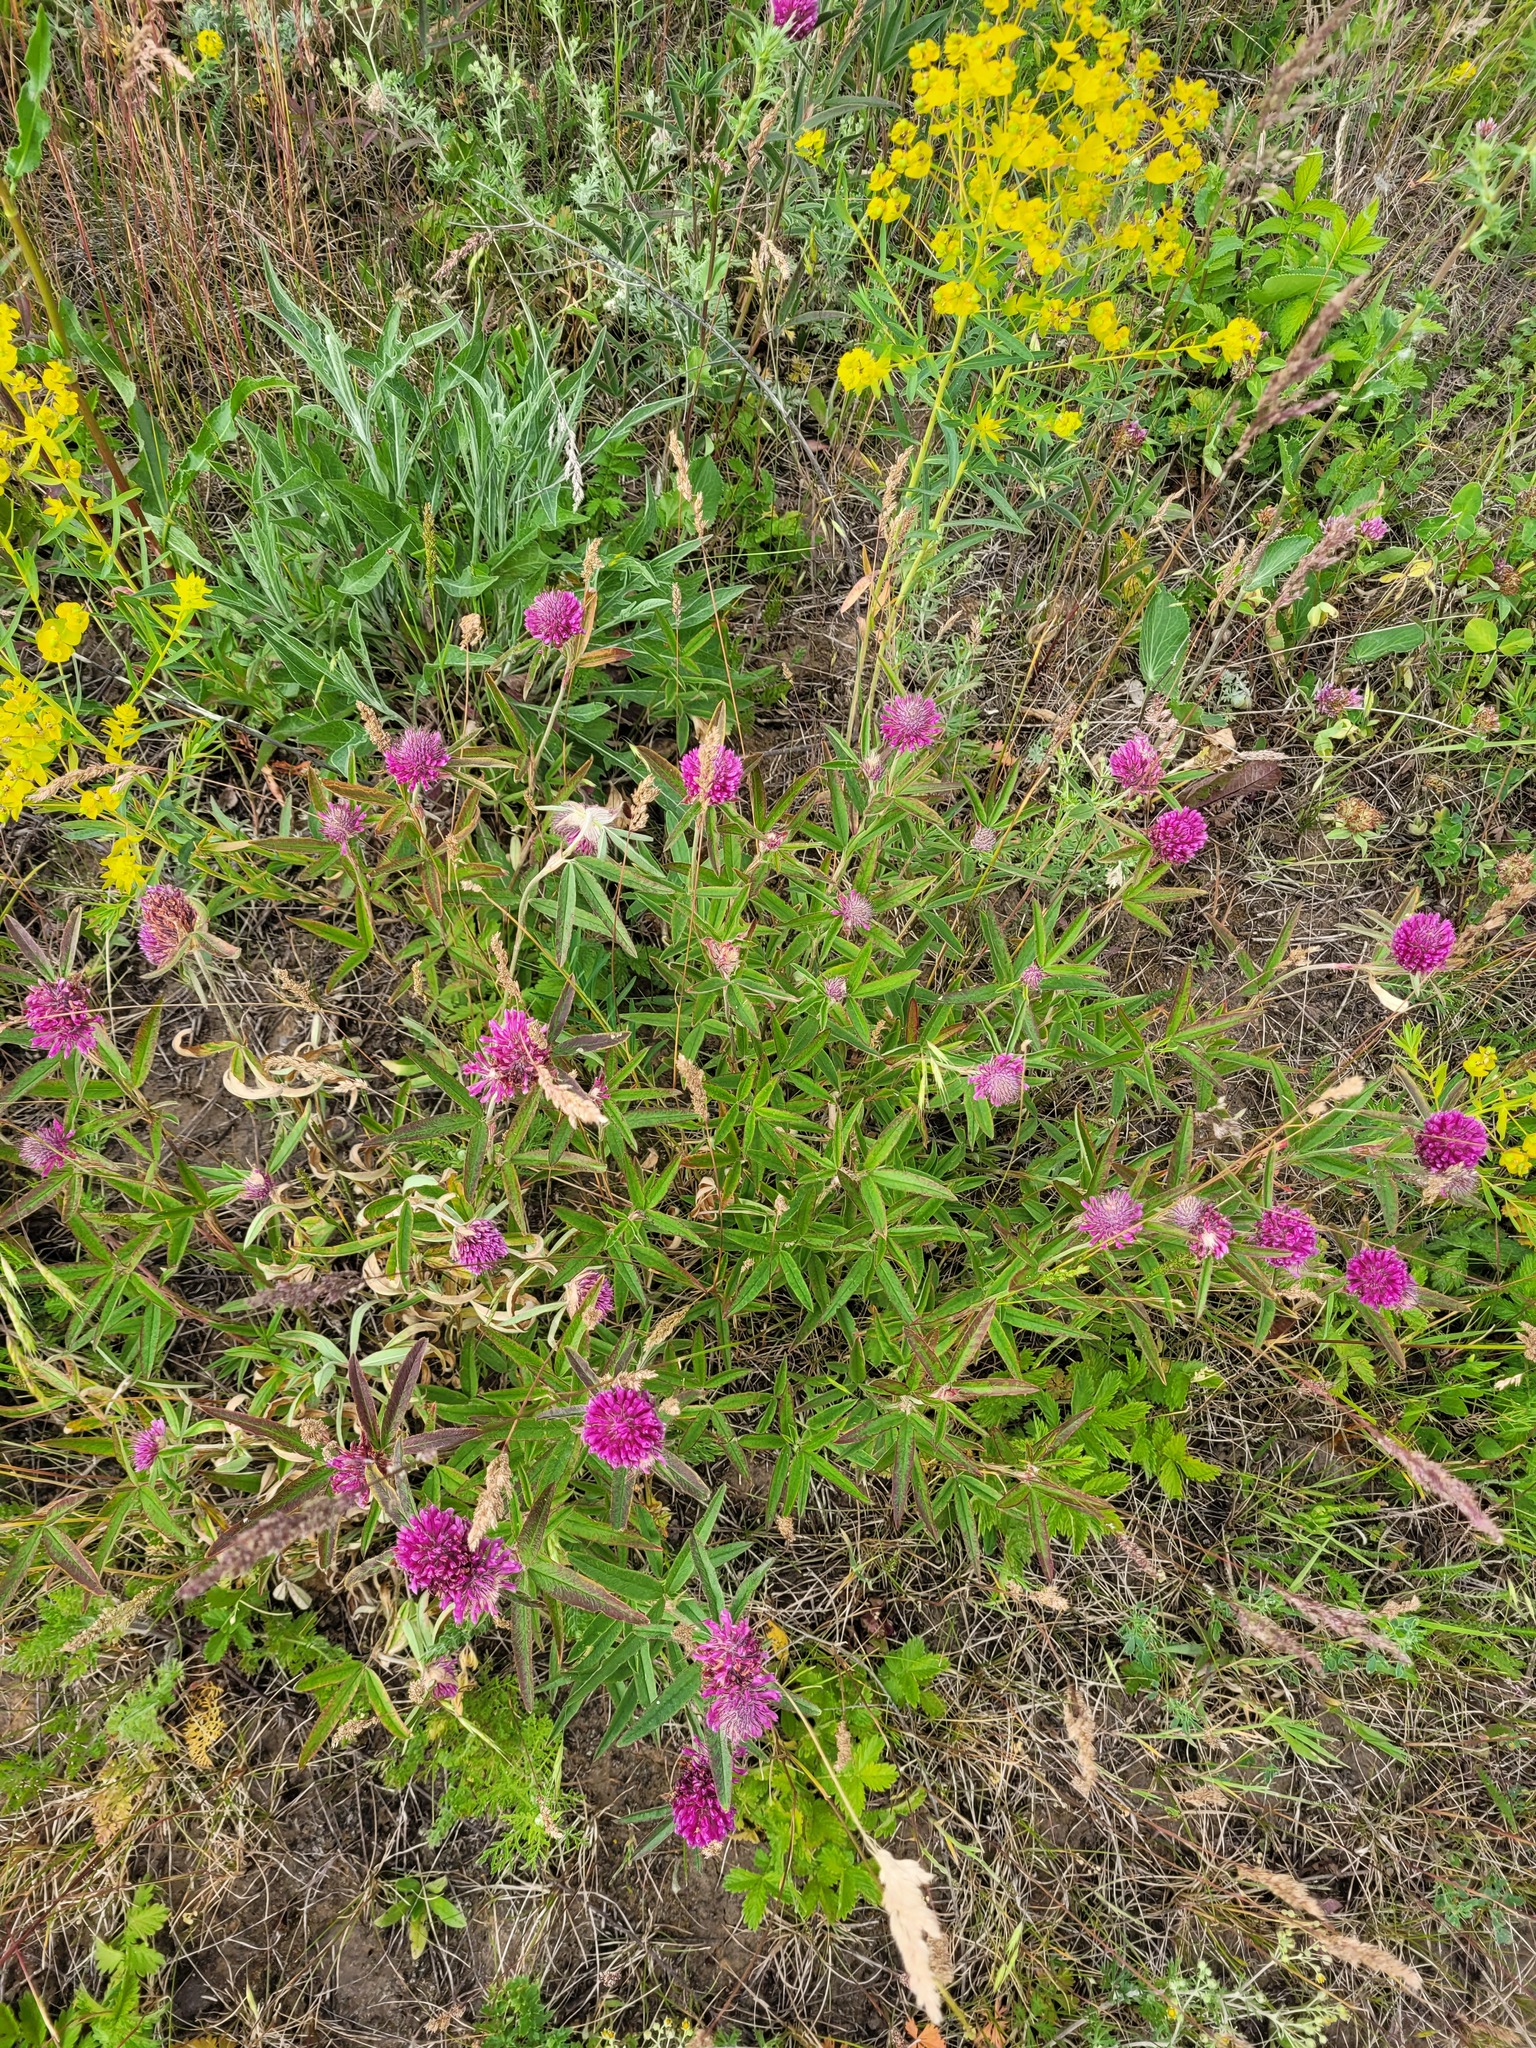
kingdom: Plantae
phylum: Tracheophyta
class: Magnoliopsida
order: Fabales
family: Fabaceae
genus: Trifolium
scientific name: Trifolium alpestre
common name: Owl-head clover
